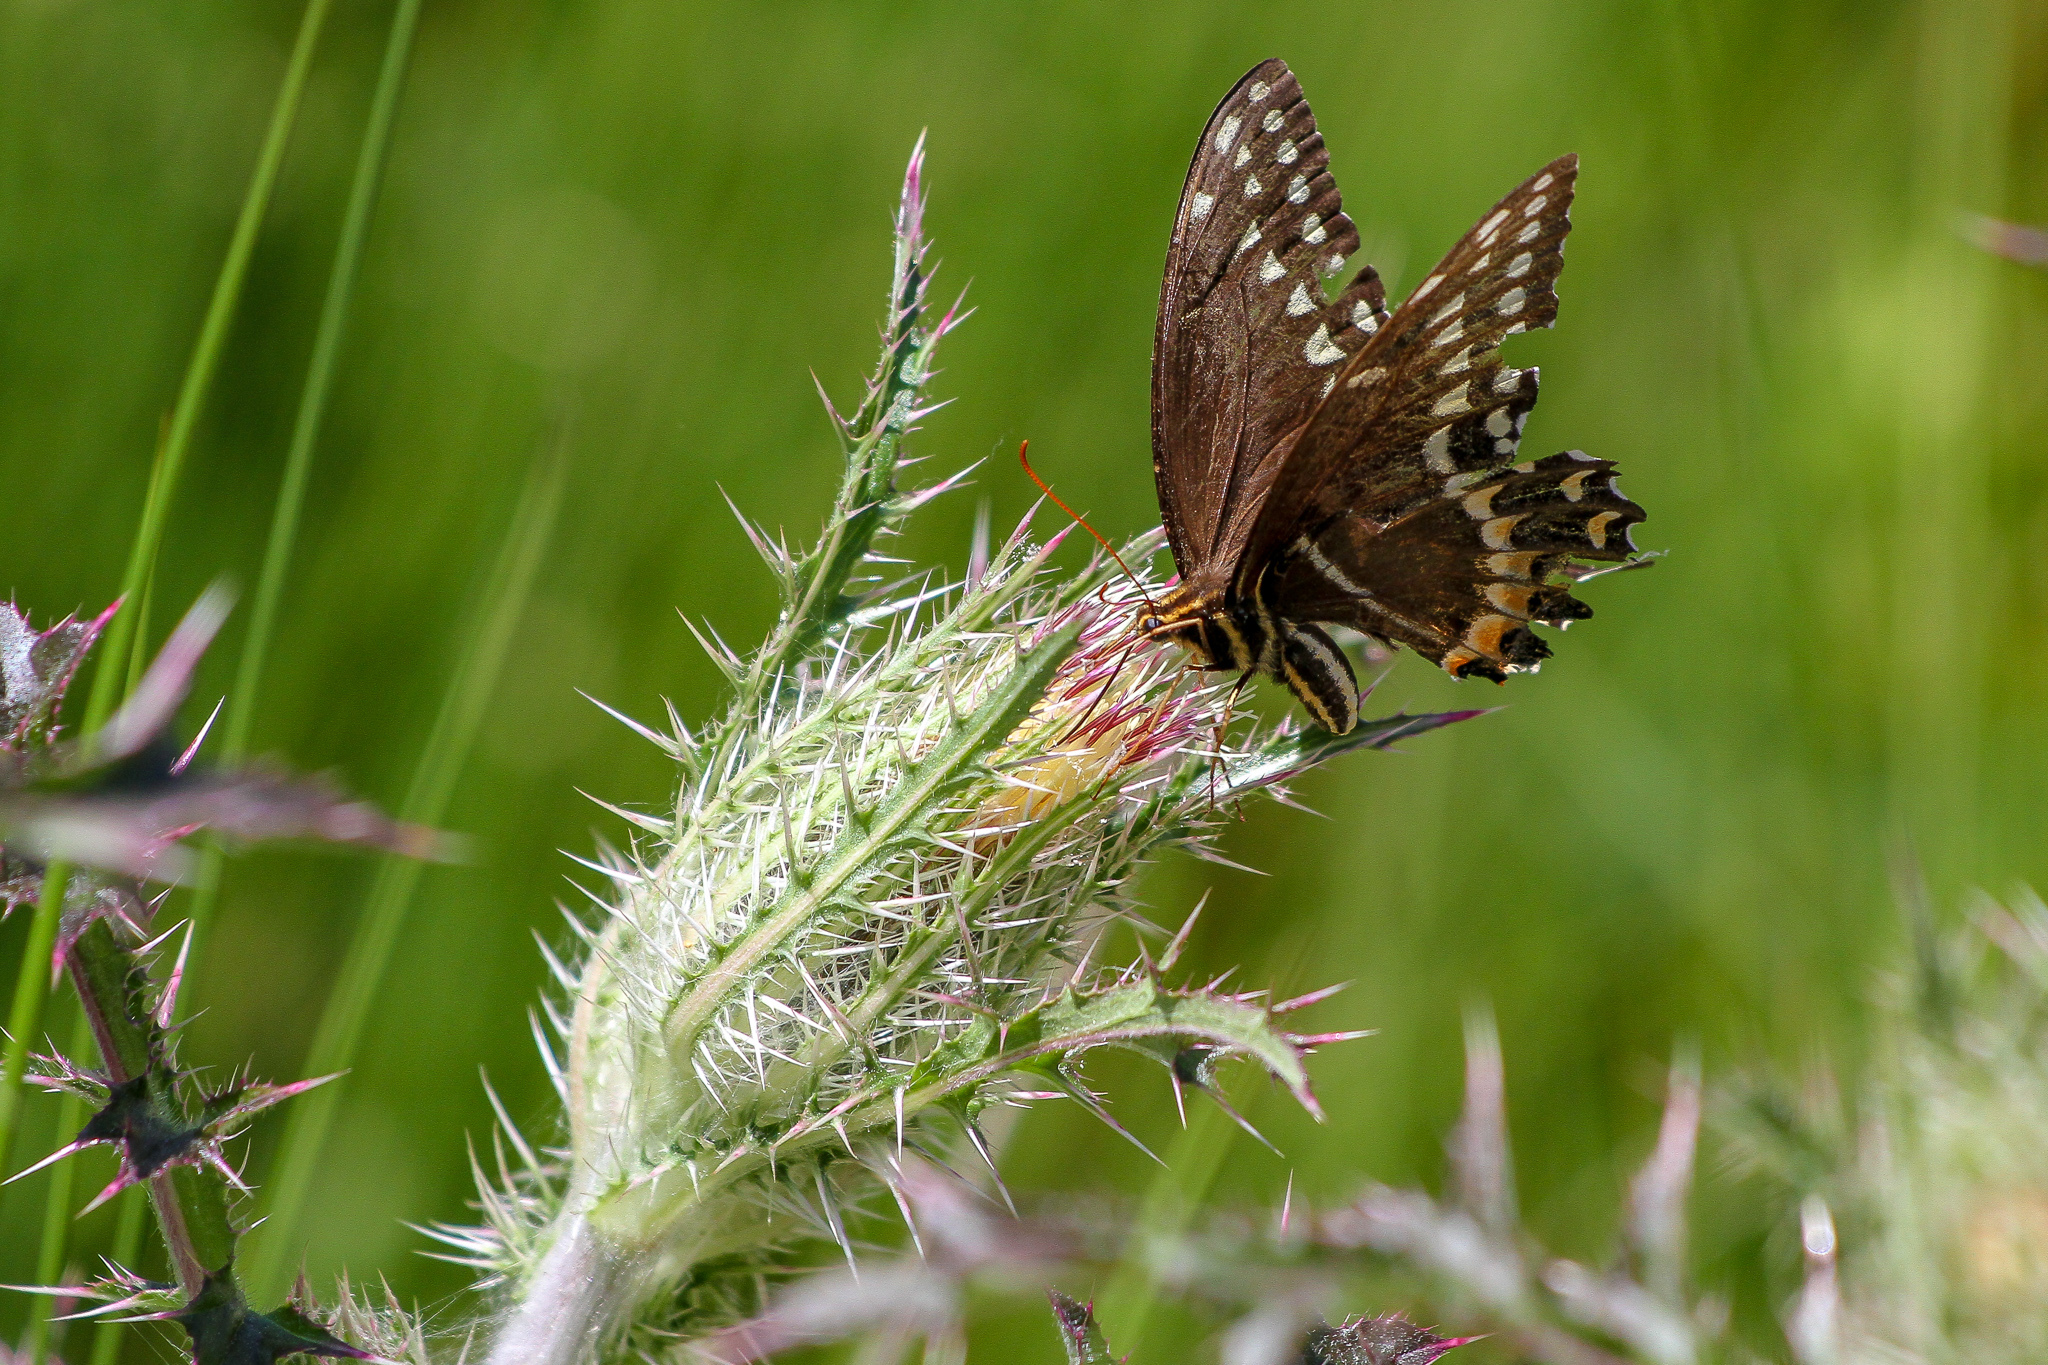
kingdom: Animalia
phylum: Arthropoda
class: Insecta
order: Lepidoptera
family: Papilionidae
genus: Papilio
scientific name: Papilio palamedes
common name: Palamedes swallowtail
